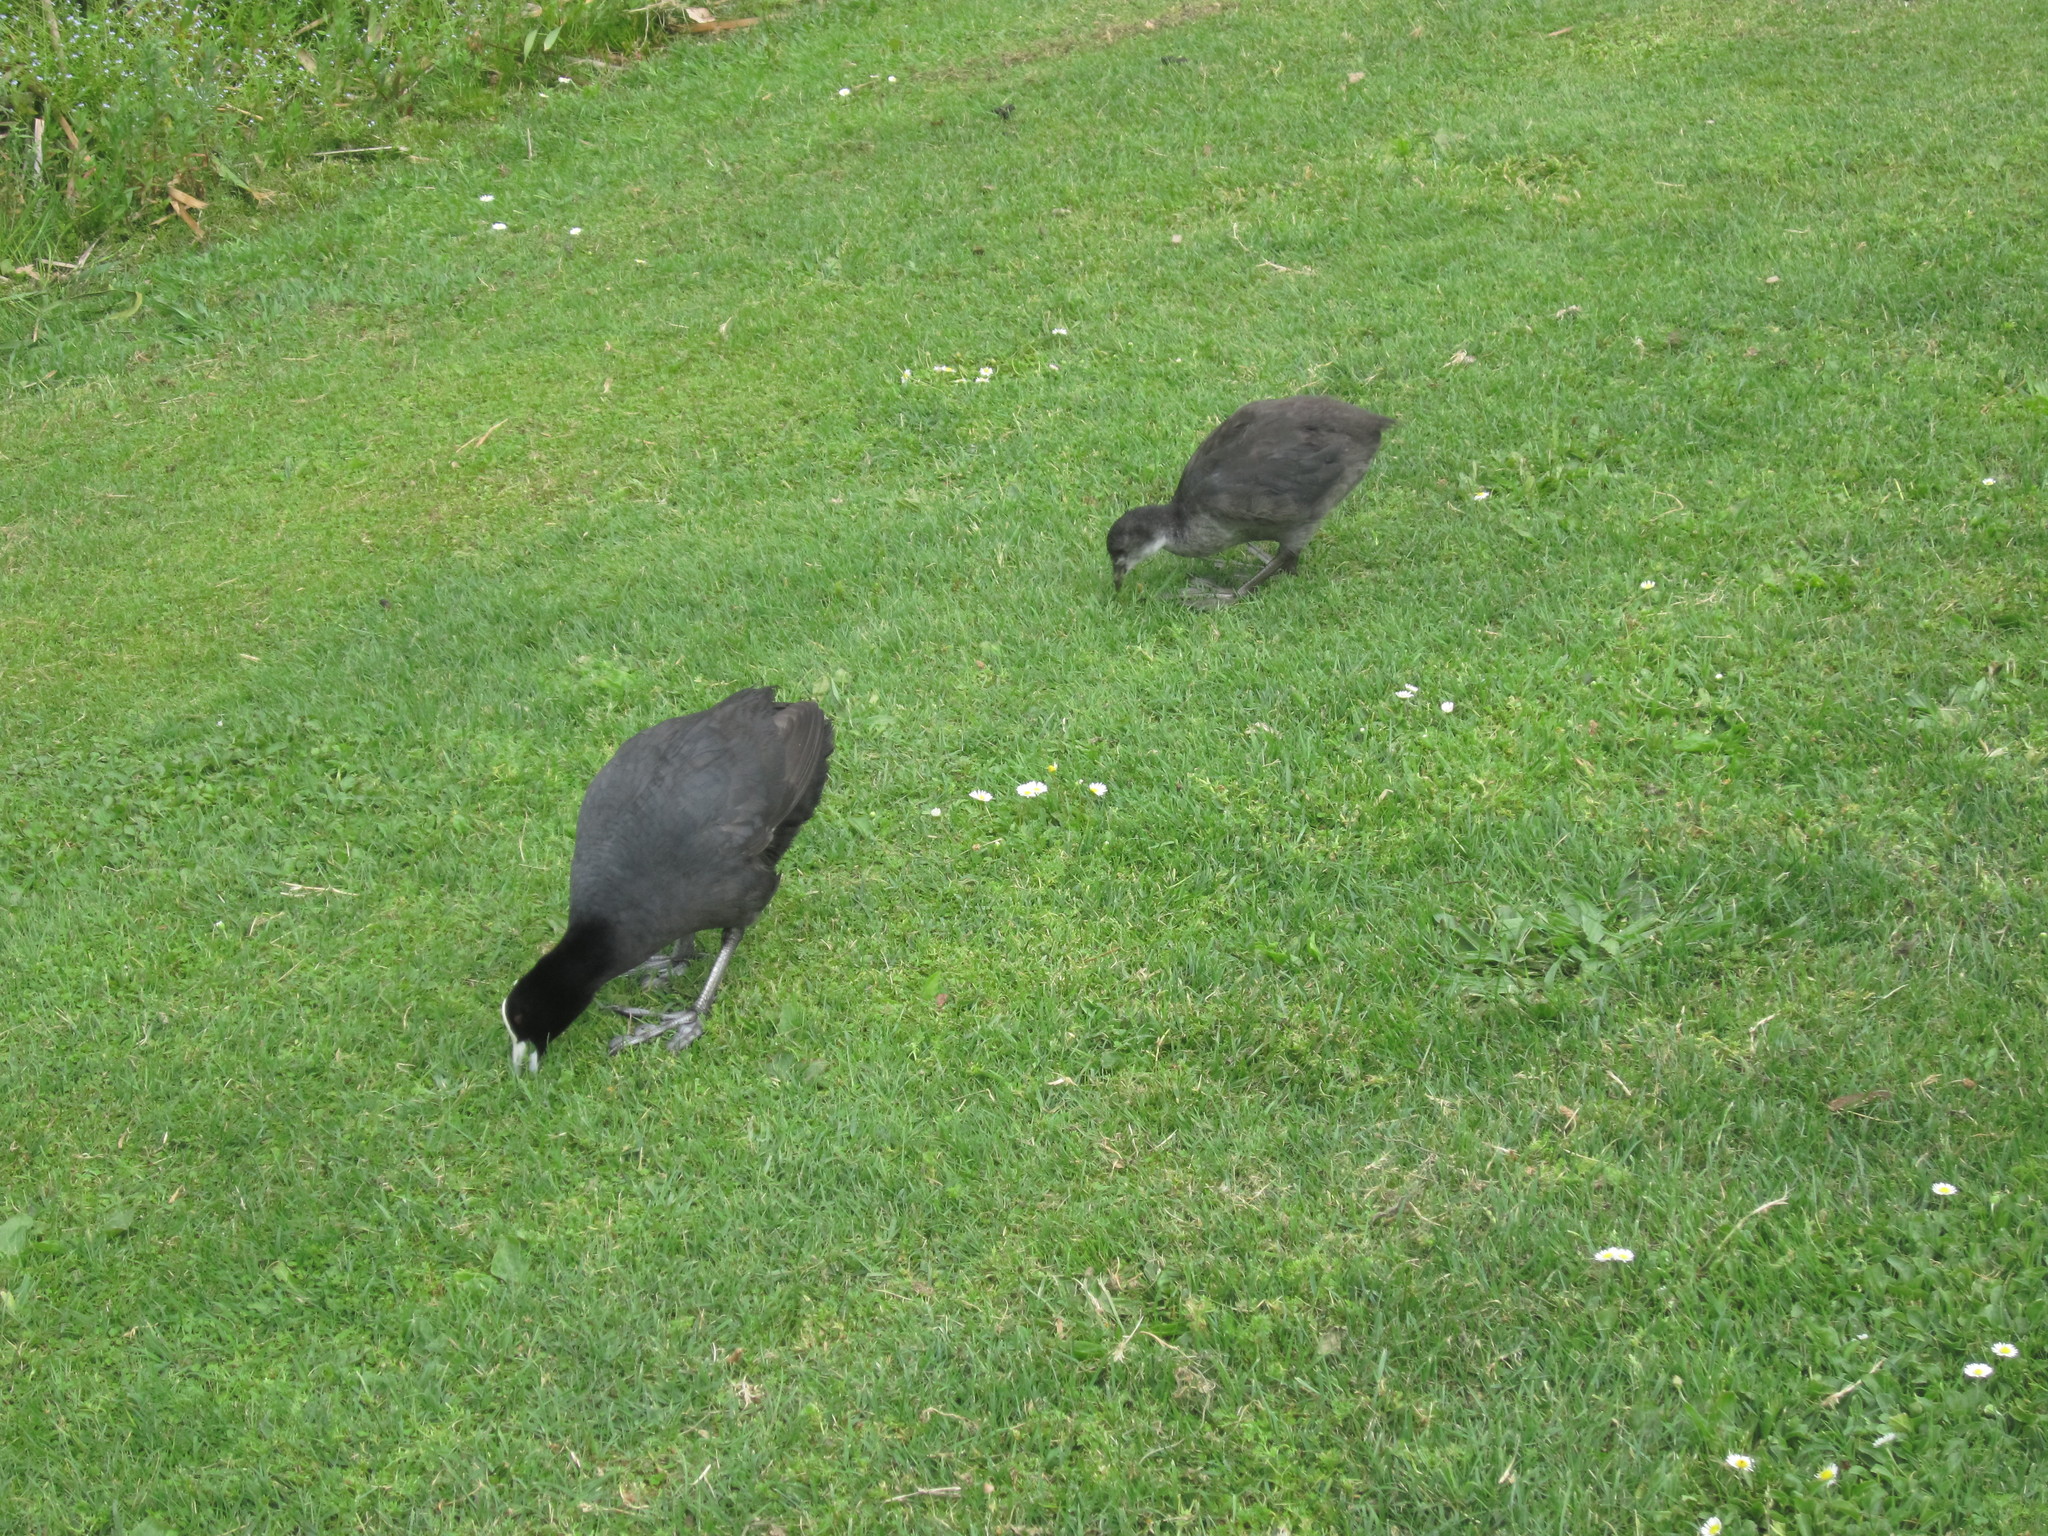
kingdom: Animalia
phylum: Chordata
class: Aves
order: Gruiformes
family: Rallidae
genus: Fulica
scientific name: Fulica atra
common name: Eurasian coot
